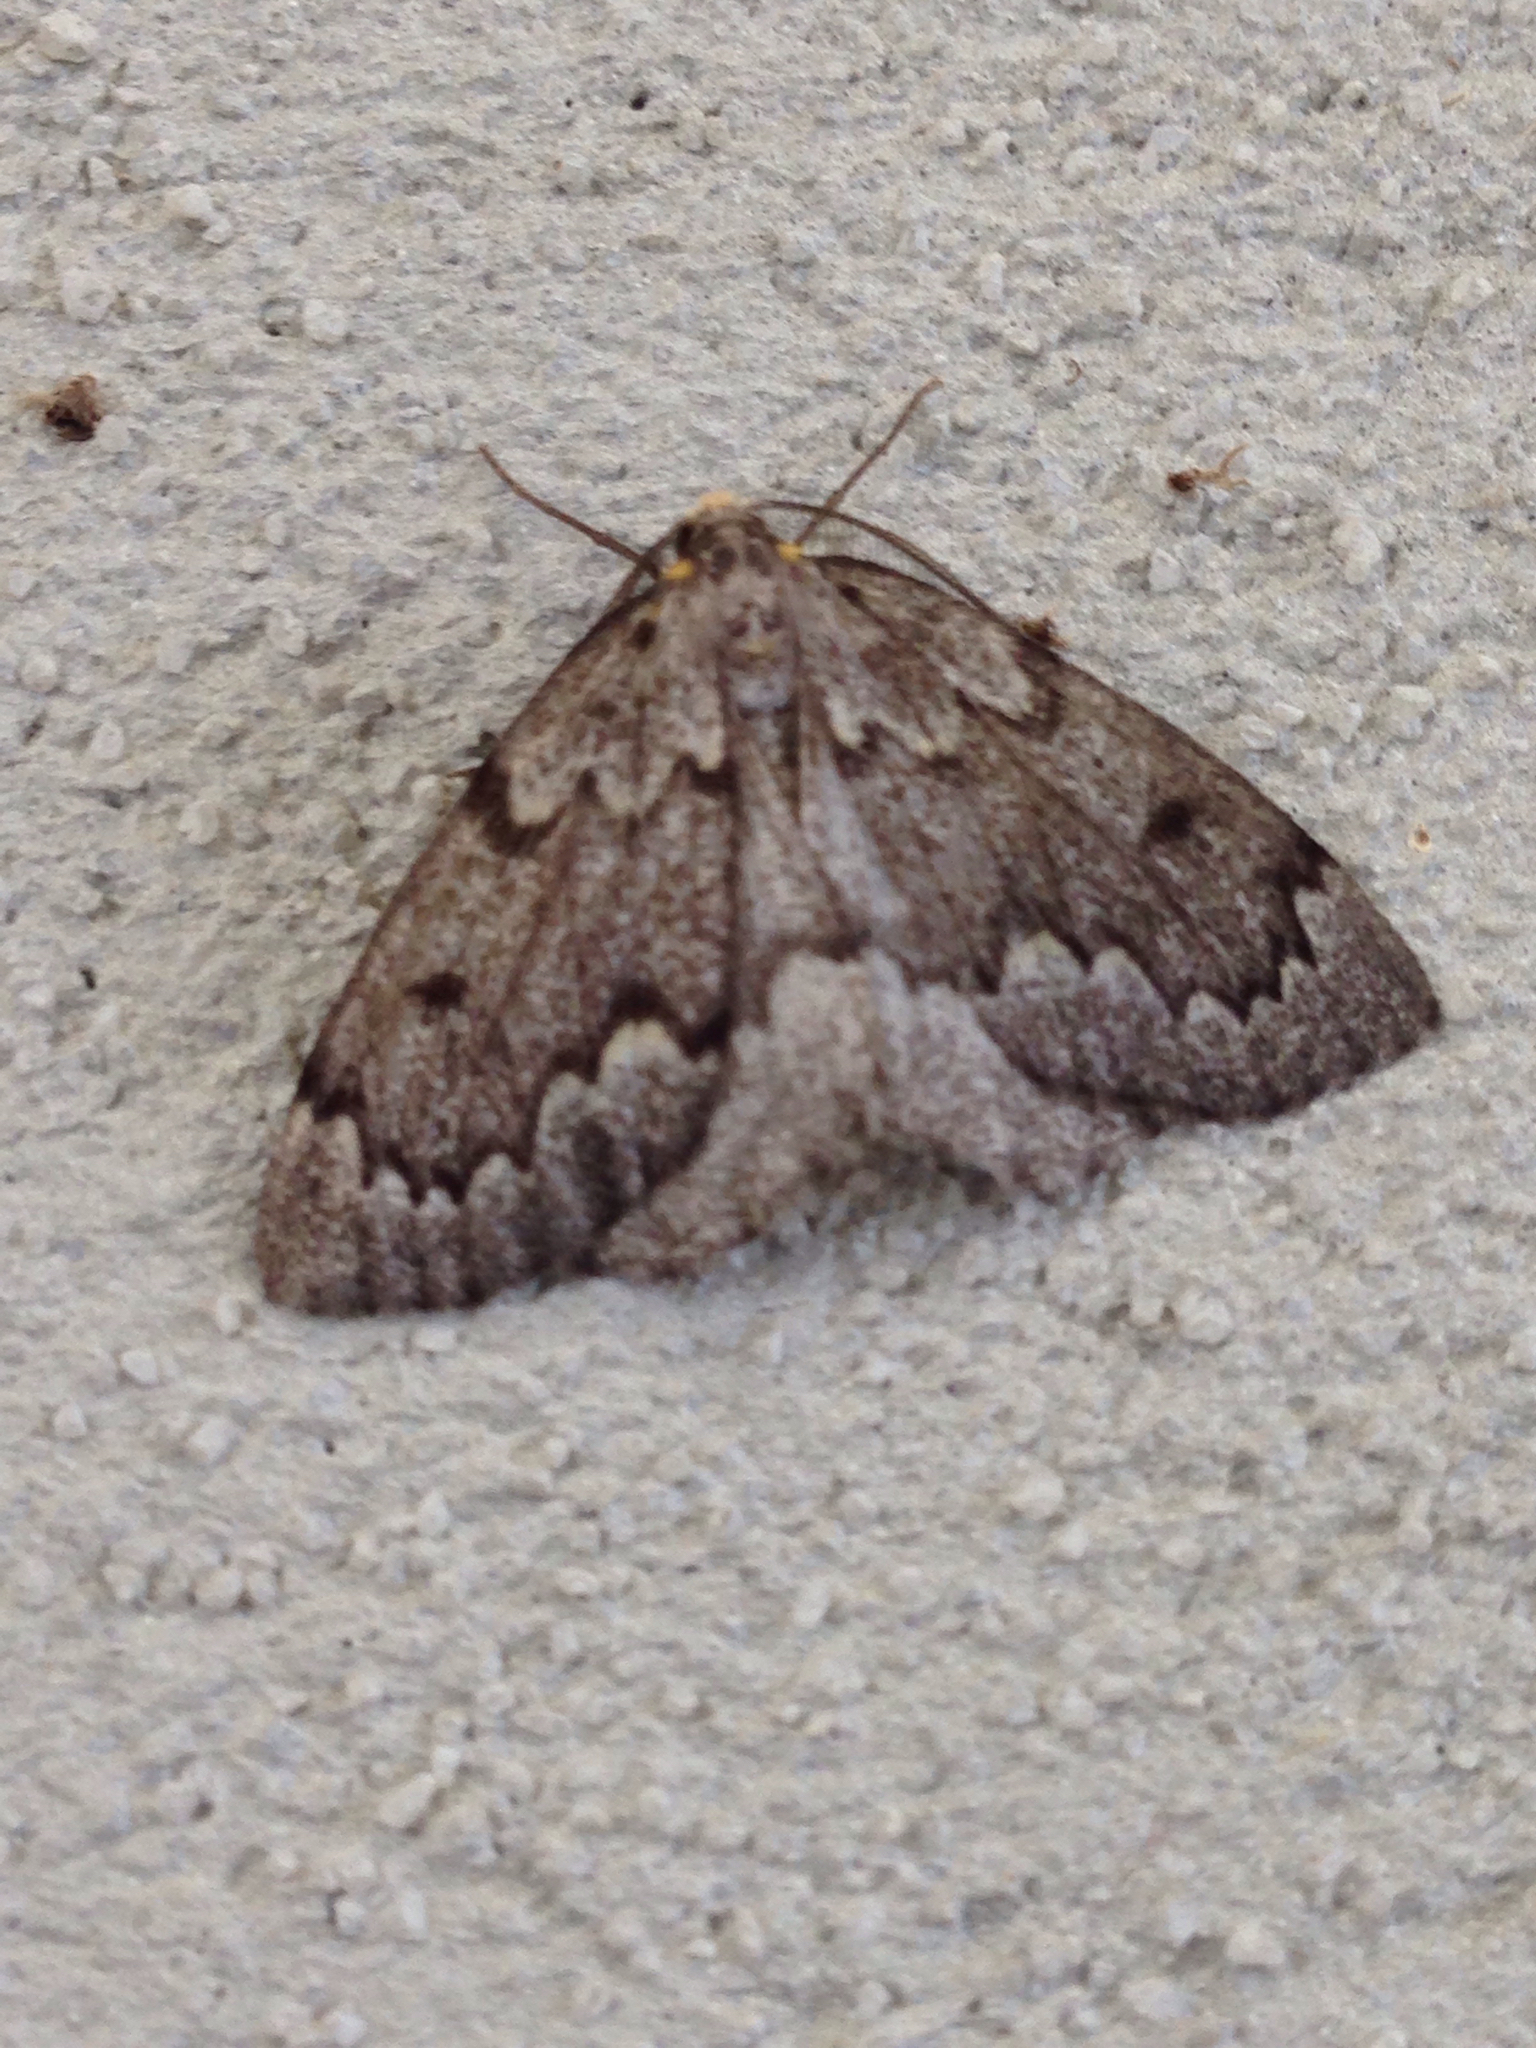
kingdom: Animalia
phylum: Arthropoda
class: Insecta
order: Lepidoptera
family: Geometridae
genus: Nepytia
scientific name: Nepytia canosaria
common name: False hemlock looper
